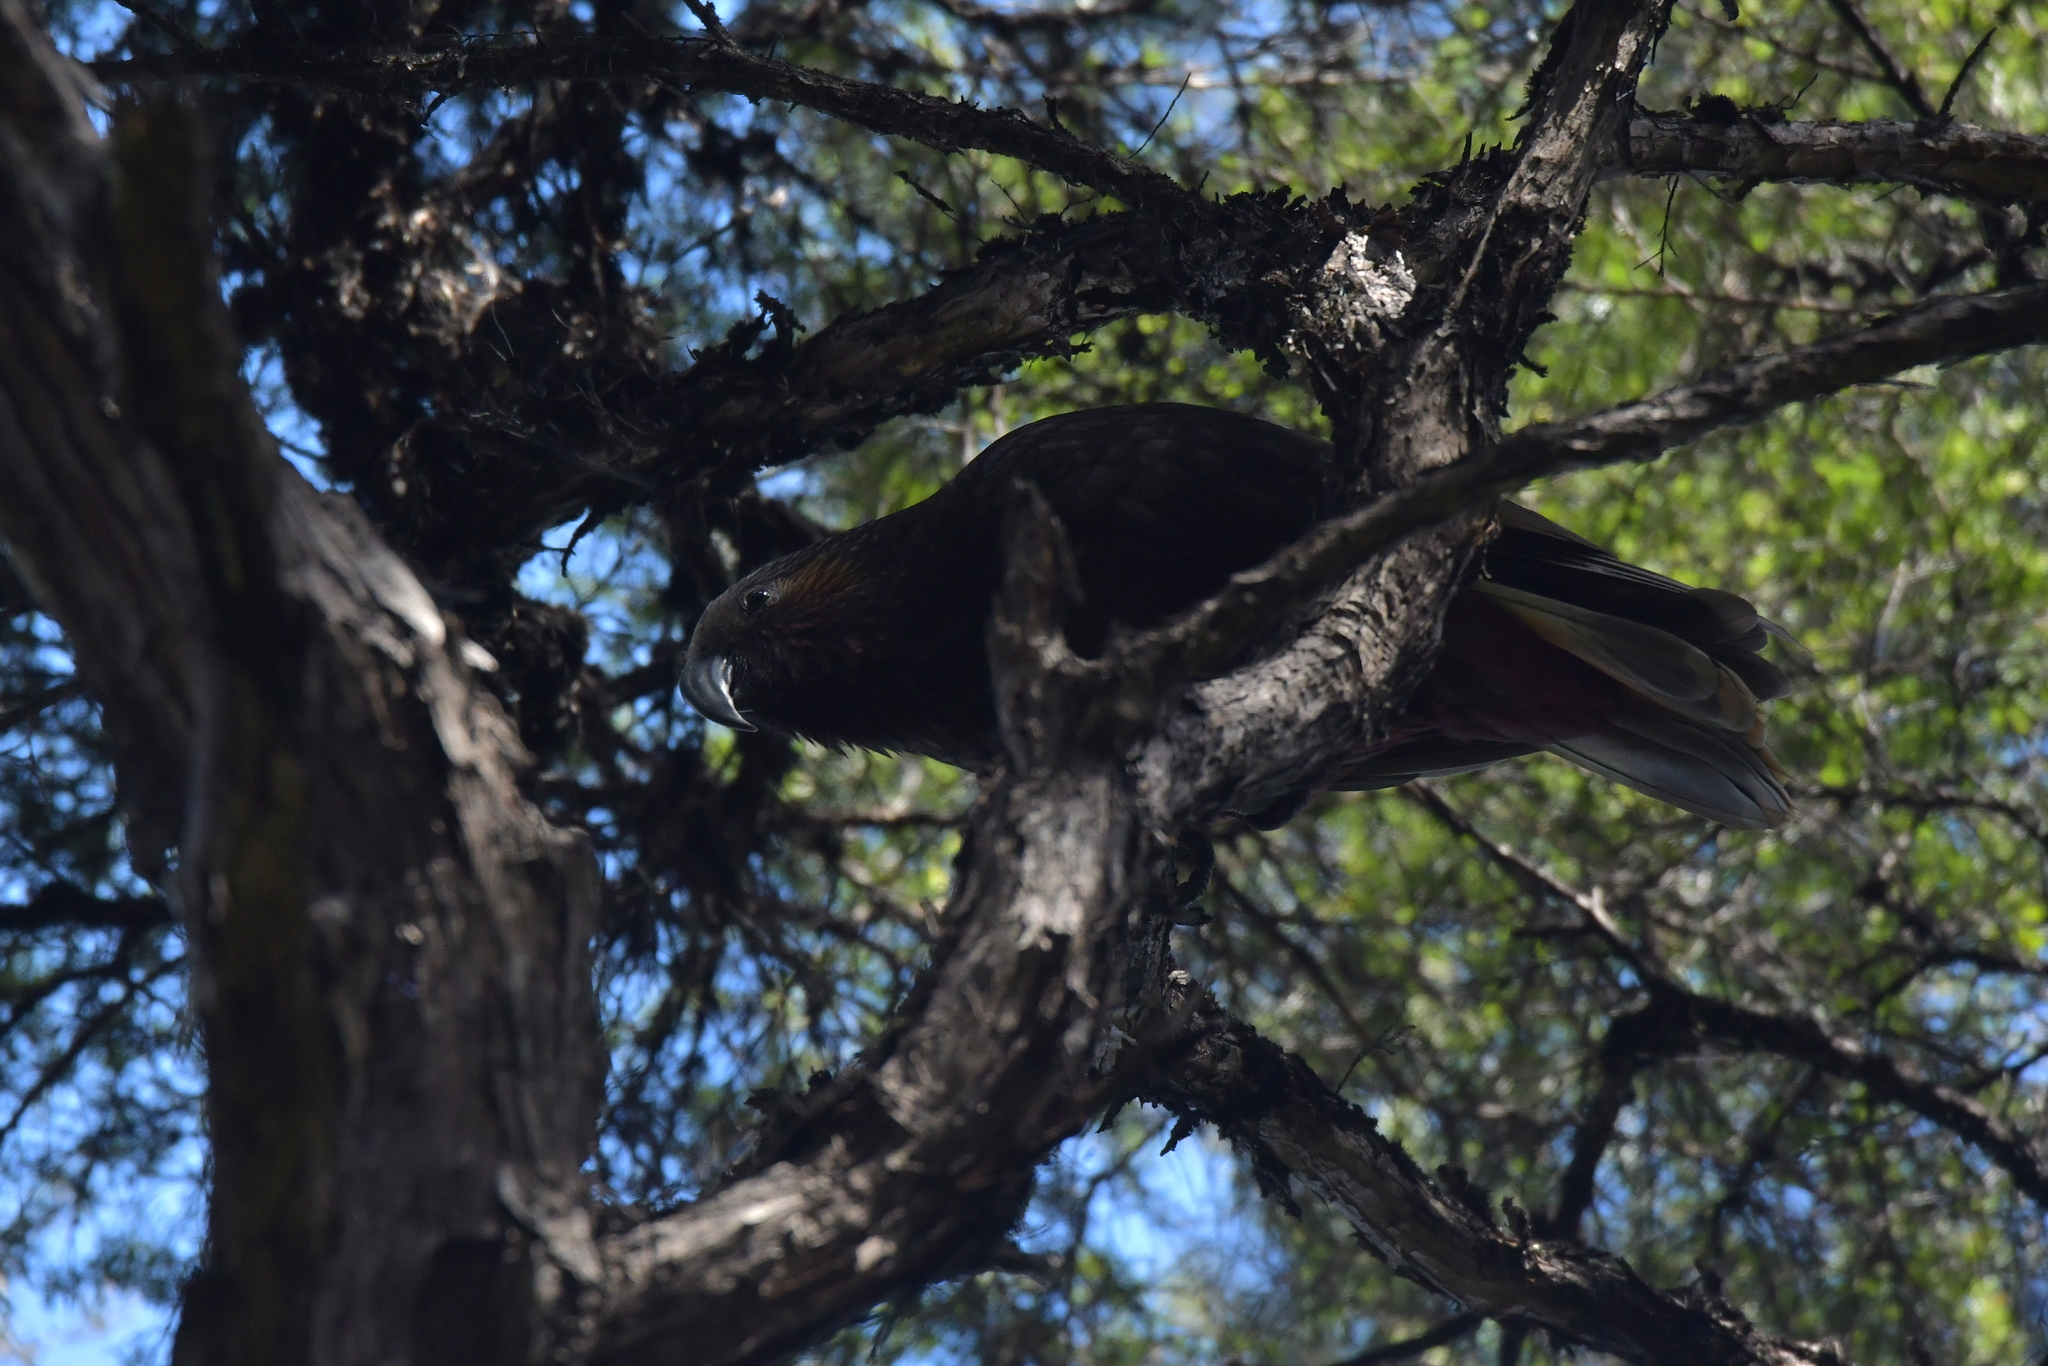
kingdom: Animalia
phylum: Chordata
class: Aves
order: Psittaciformes
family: Psittacidae
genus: Nestor
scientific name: Nestor meridionalis
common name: New zealand kaka
